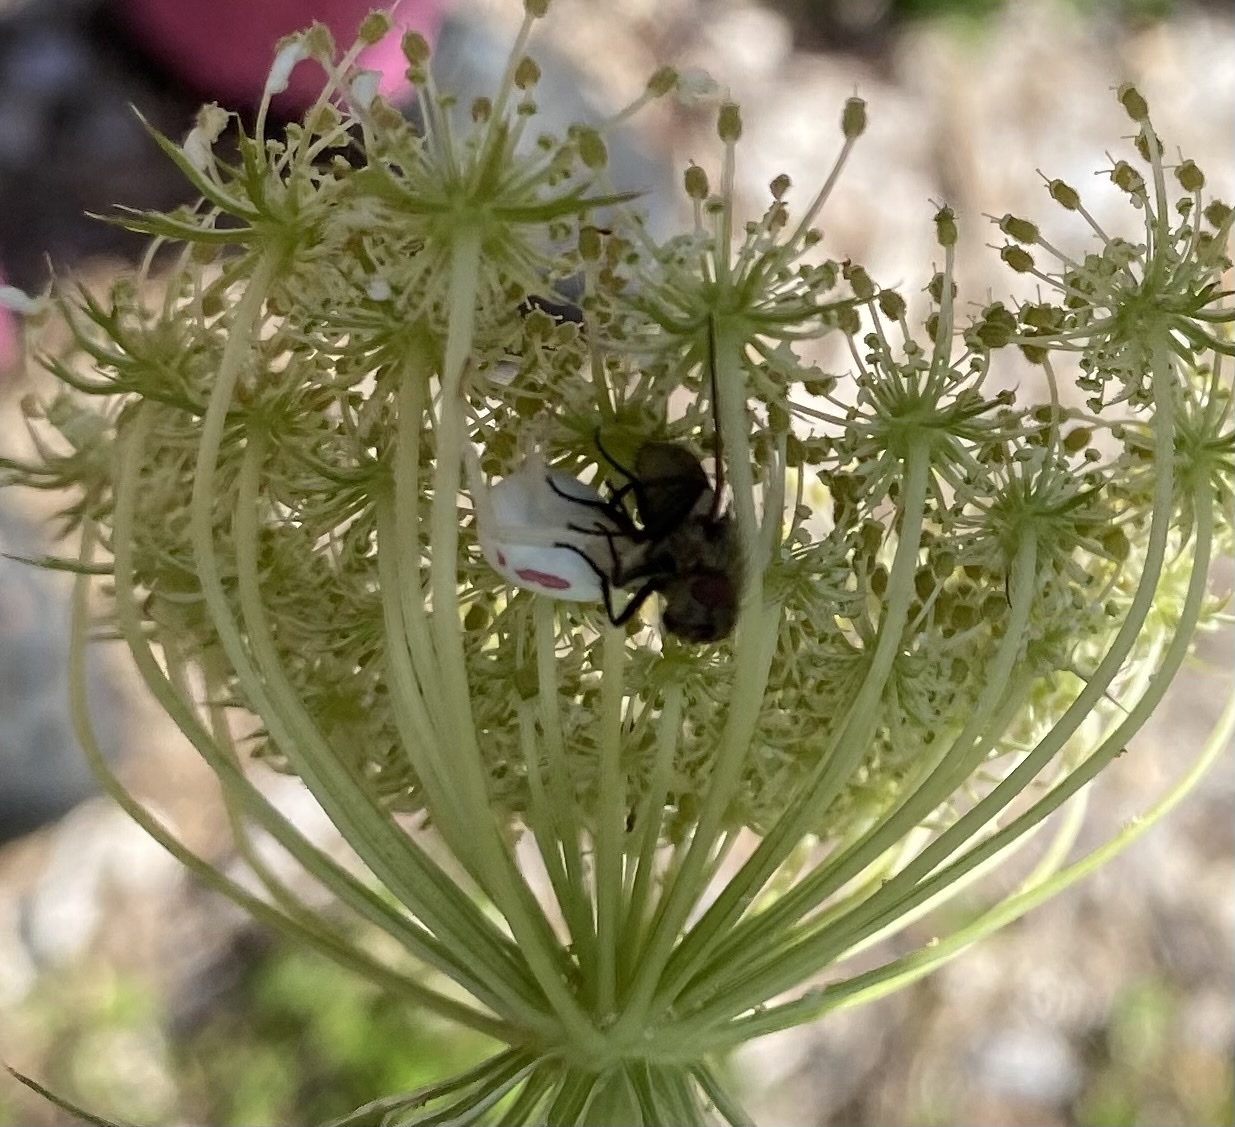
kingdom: Animalia
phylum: Arthropoda
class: Arachnida
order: Araneae
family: Thomisidae
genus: Misumena
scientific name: Misumena vatia
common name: Goldenrod crab spider
